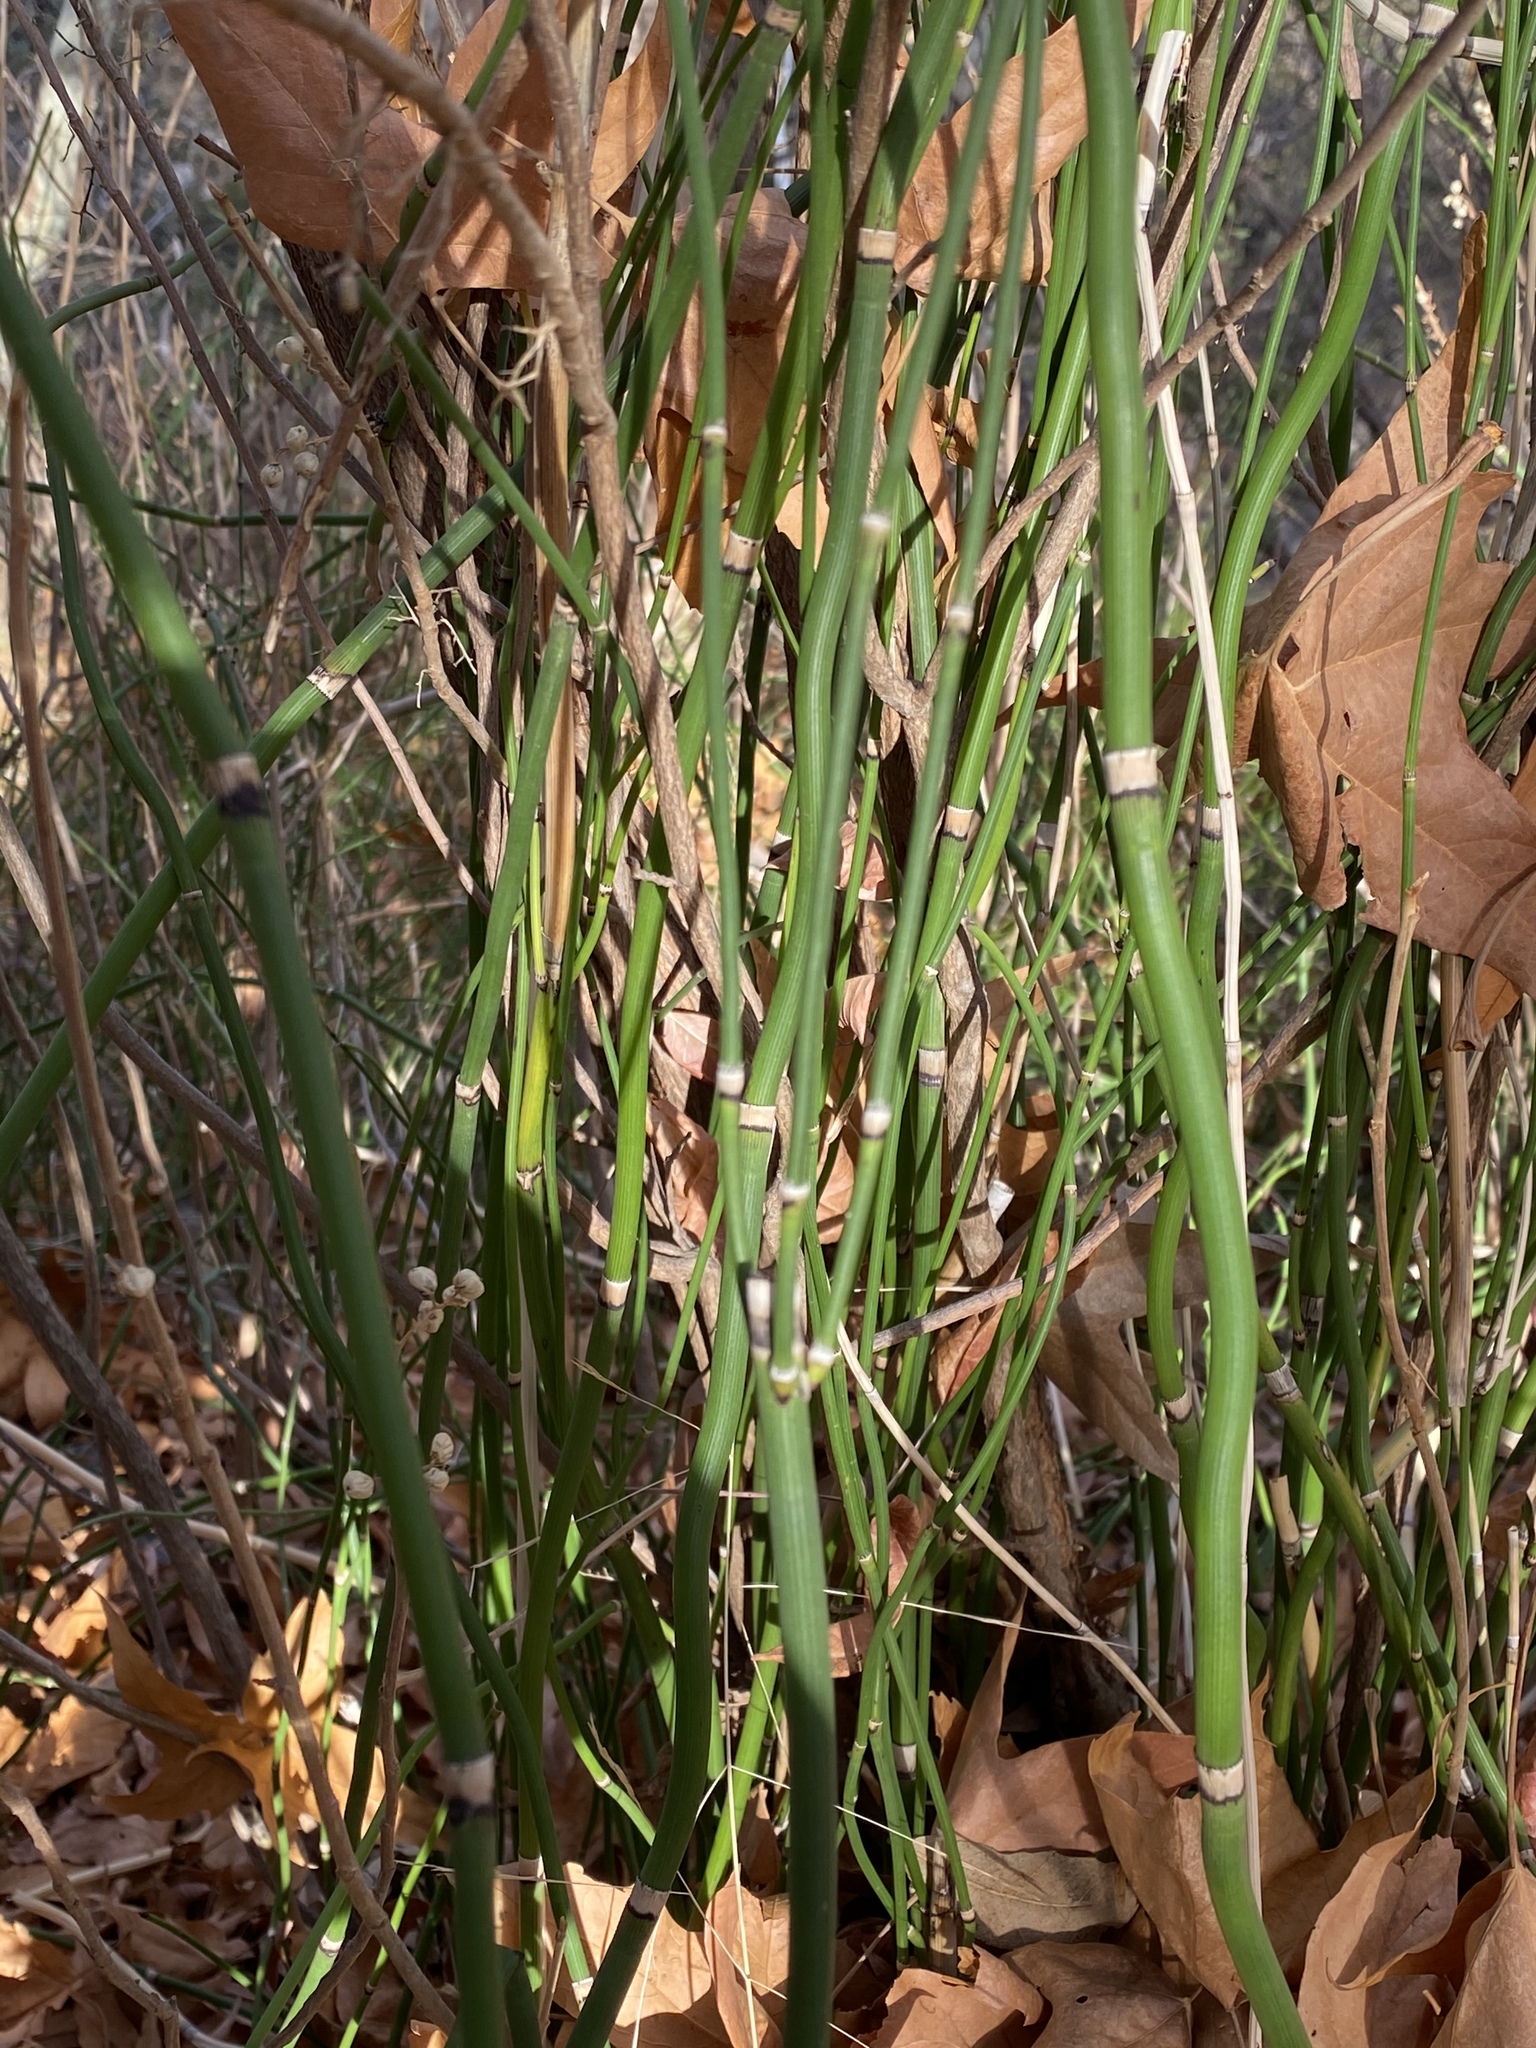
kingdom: Plantae
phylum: Tracheophyta
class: Polypodiopsida
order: Equisetales
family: Equisetaceae
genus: Equisetum
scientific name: Equisetum ferrissii
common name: Ferriss' horsetail
